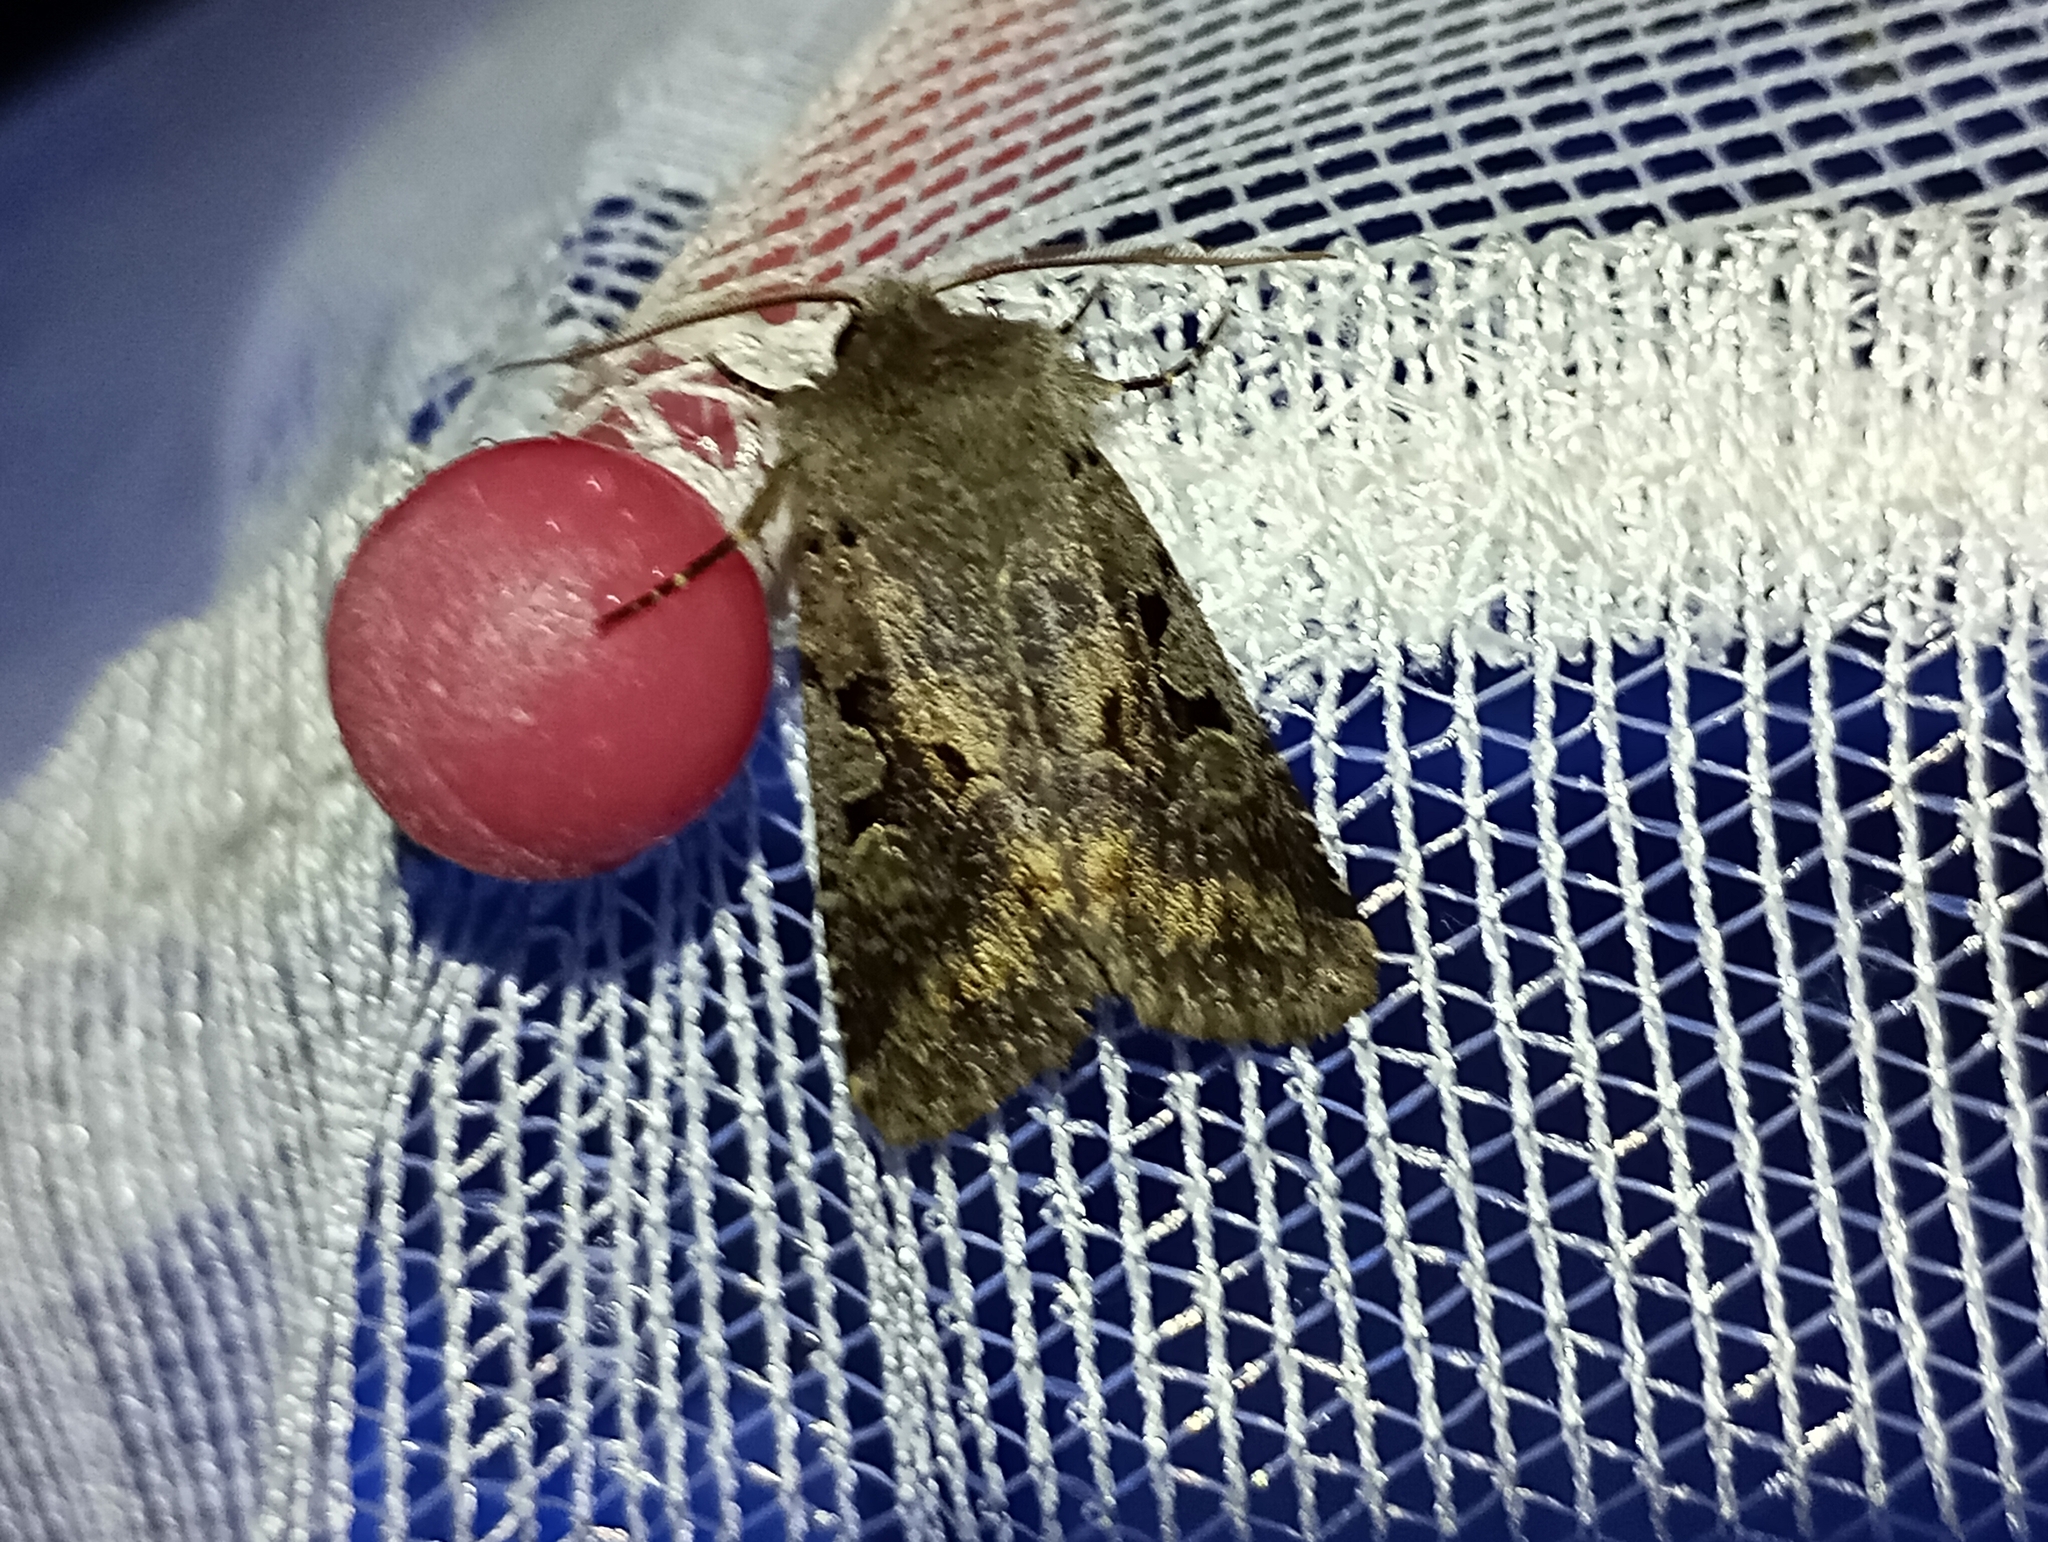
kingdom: Animalia
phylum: Arthropoda
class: Insecta
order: Lepidoptera
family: Noctuidae
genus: Orthosia
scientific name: Orthosia gothica
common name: Hebrew character
